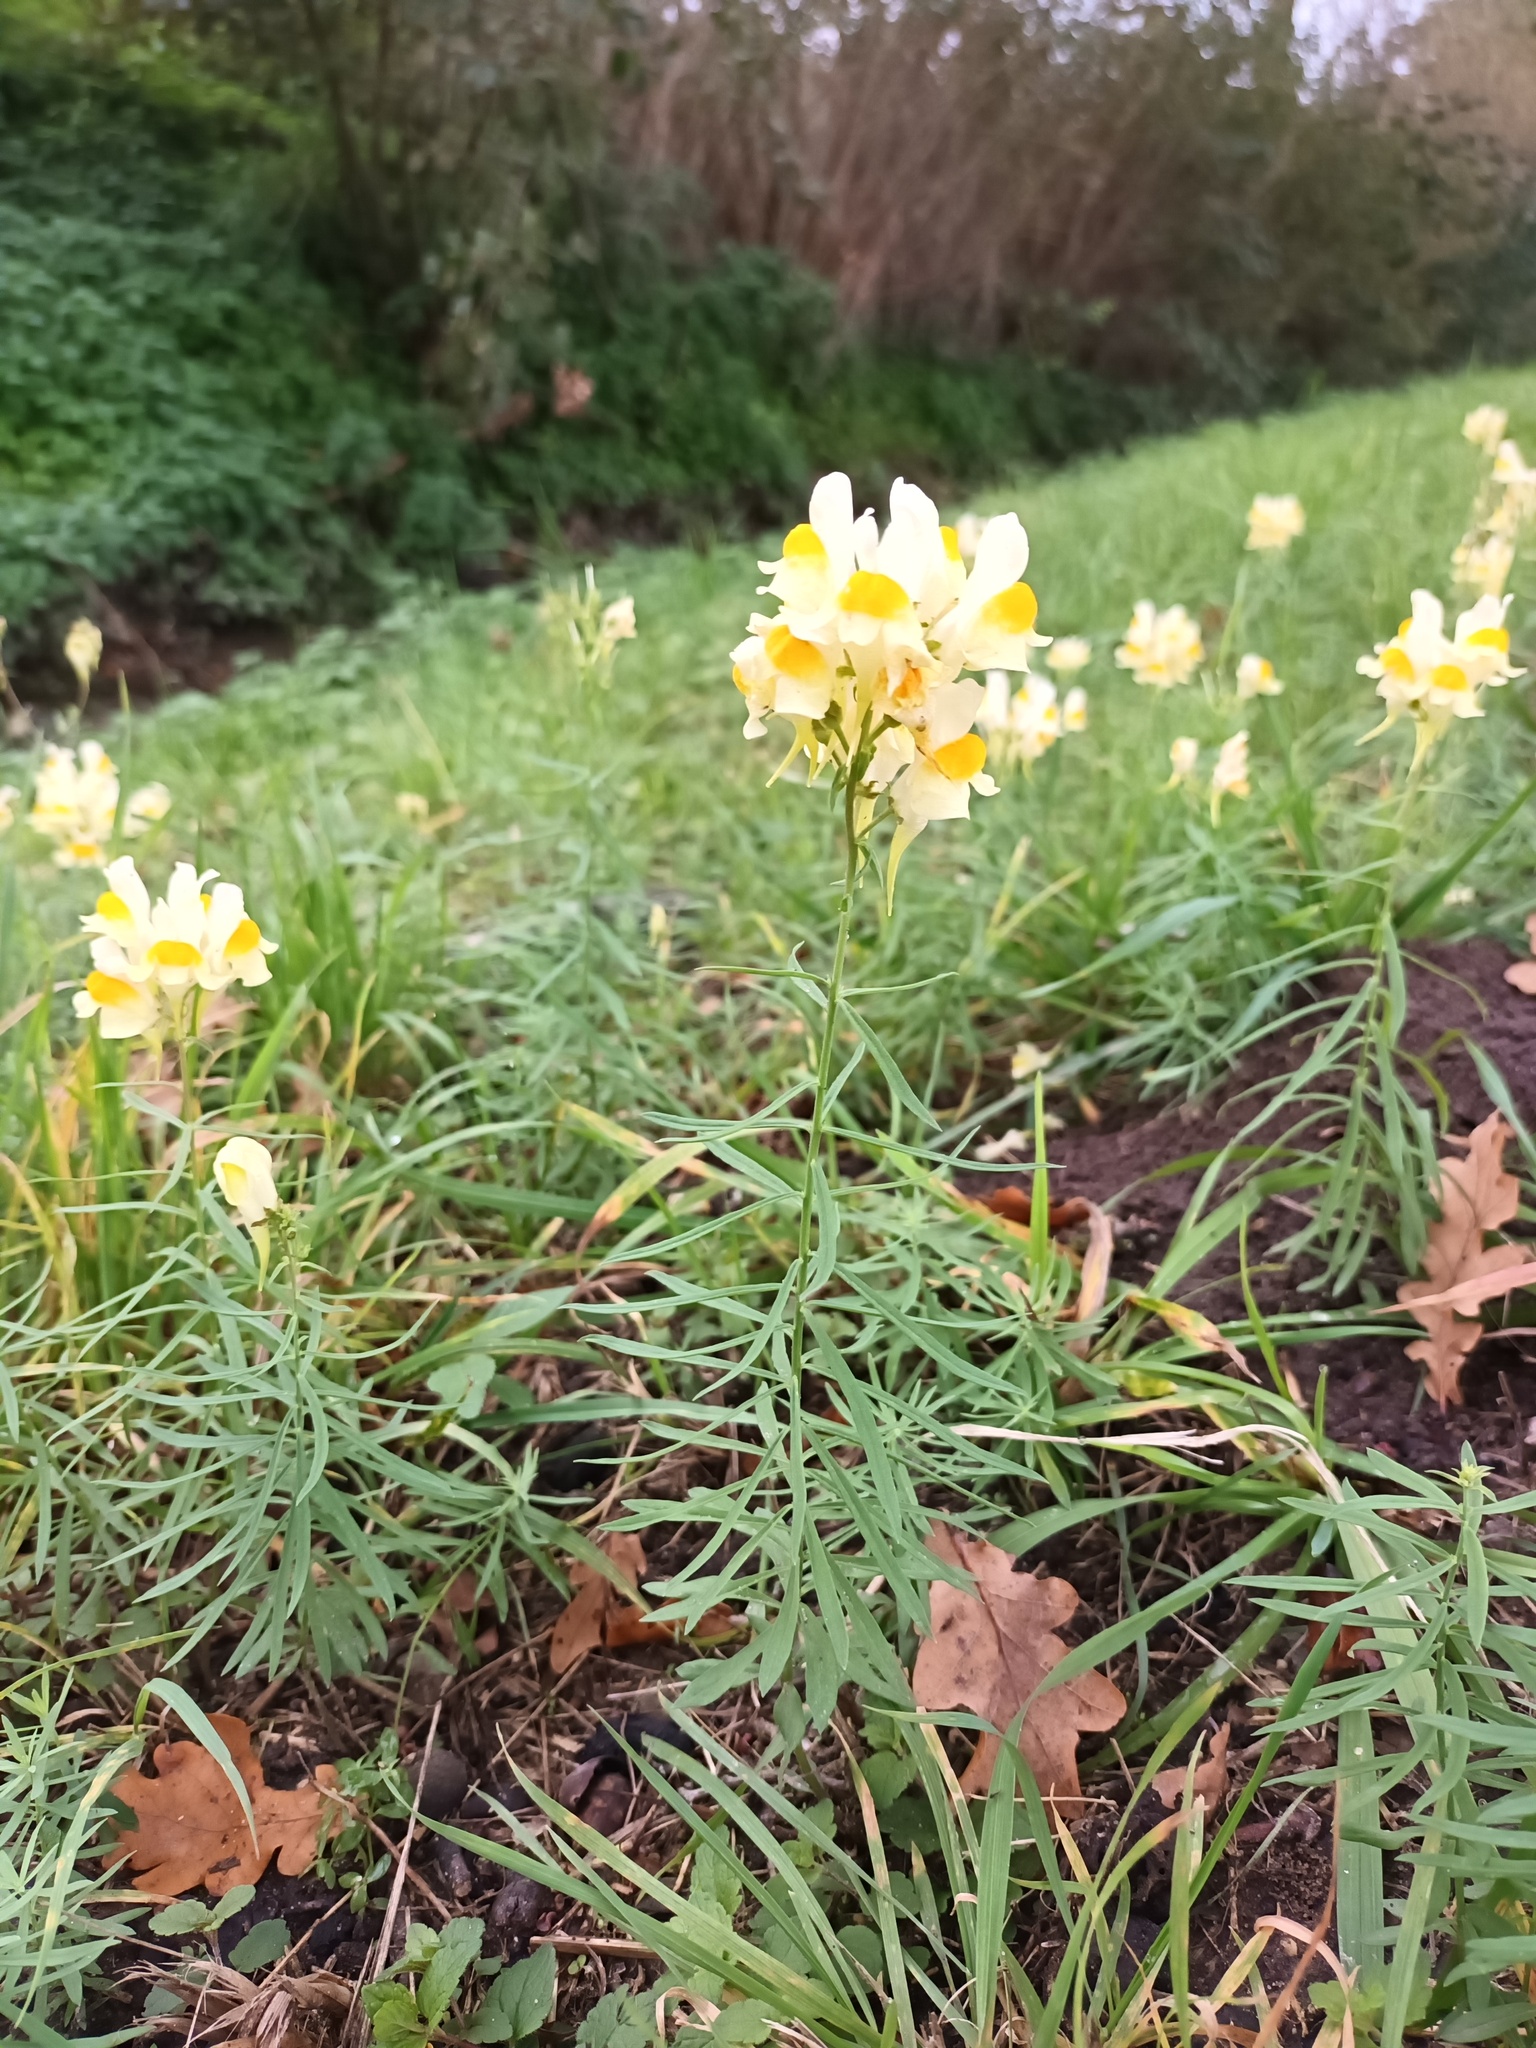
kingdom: Plantae
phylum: Tracheophyta
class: Magnoliopsida
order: Lamiales
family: Plantaginaceae
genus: Linaria
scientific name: Linaria vulgaris
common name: Butter and eggs
